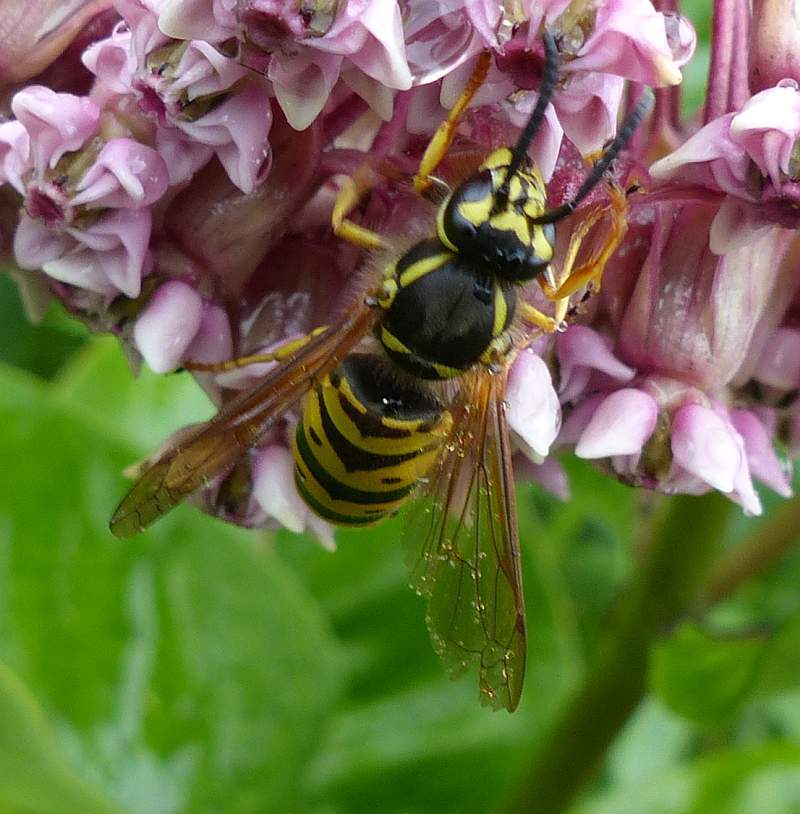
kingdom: Animalia
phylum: Arthropoda
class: Insecta
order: Hymenoptera
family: Vespidae
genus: Vespula
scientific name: Vespula maculifrons
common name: Eastern yellowjacket
